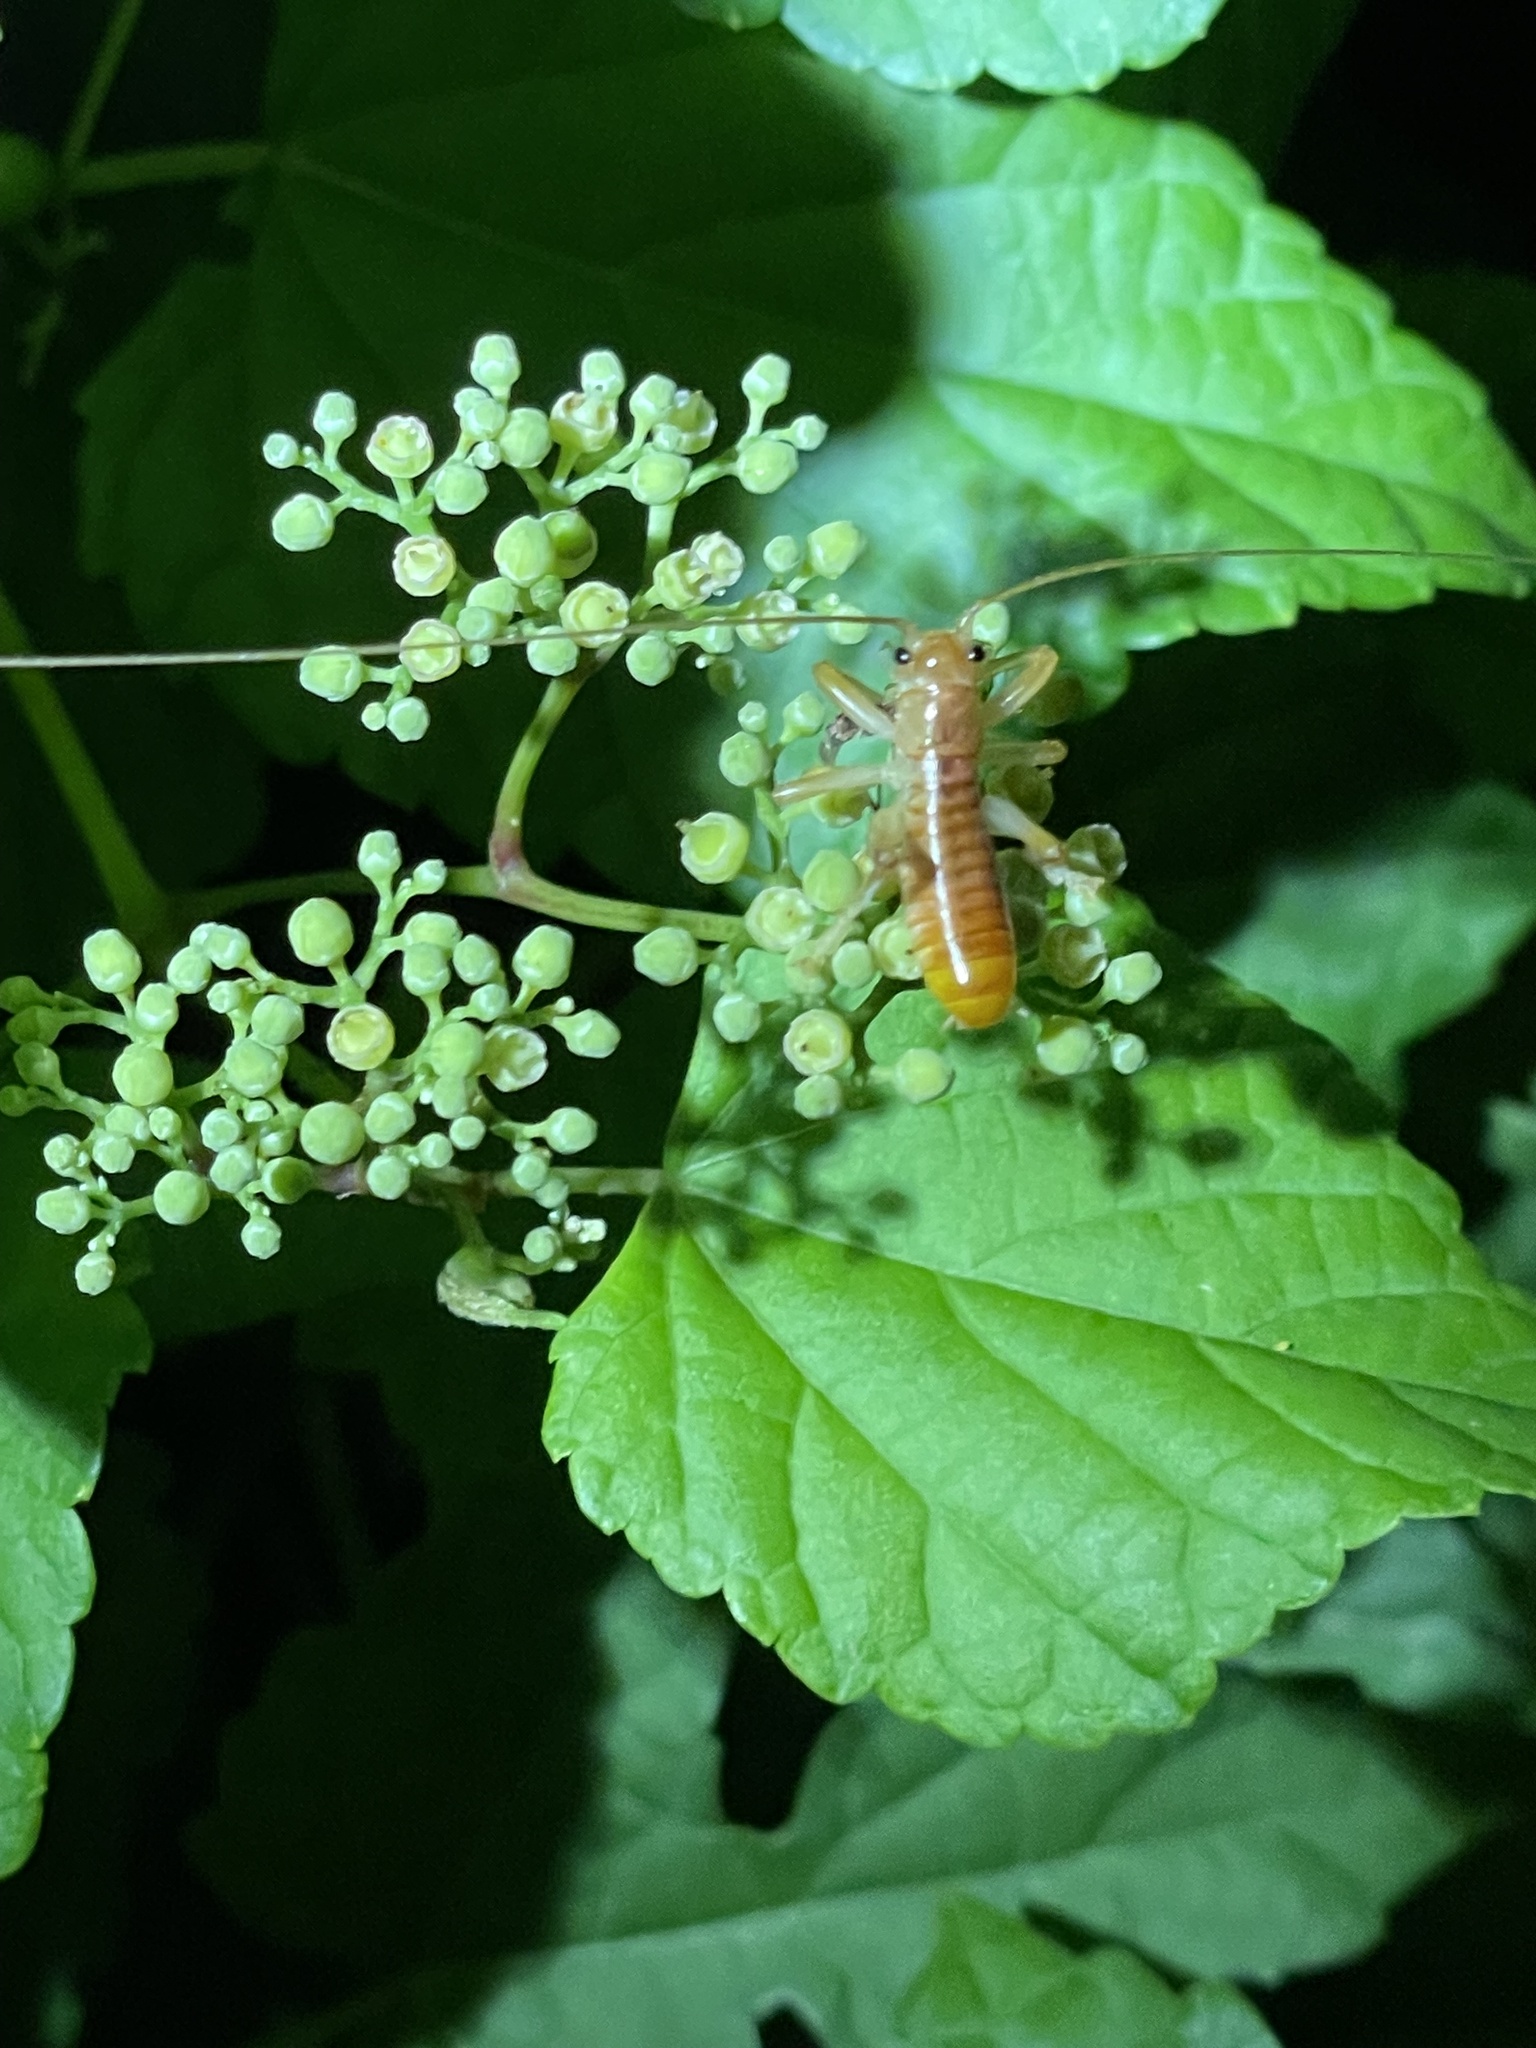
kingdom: Animalia
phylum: Arthropoda
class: Insecta
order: Orthoptera
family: Gryllacrididae
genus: Camptonotus
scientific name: Camptonotus carolinensis
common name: Carolina leaf-roller
